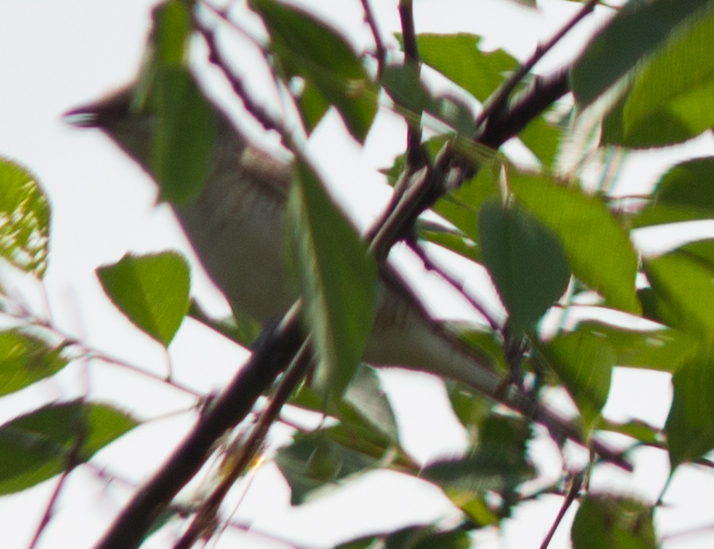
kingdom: Animalia
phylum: Chordata
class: Aves
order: Passeriformes
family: Laniidae
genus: Lanius
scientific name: Lanius collurio
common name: Red-backed shrike
